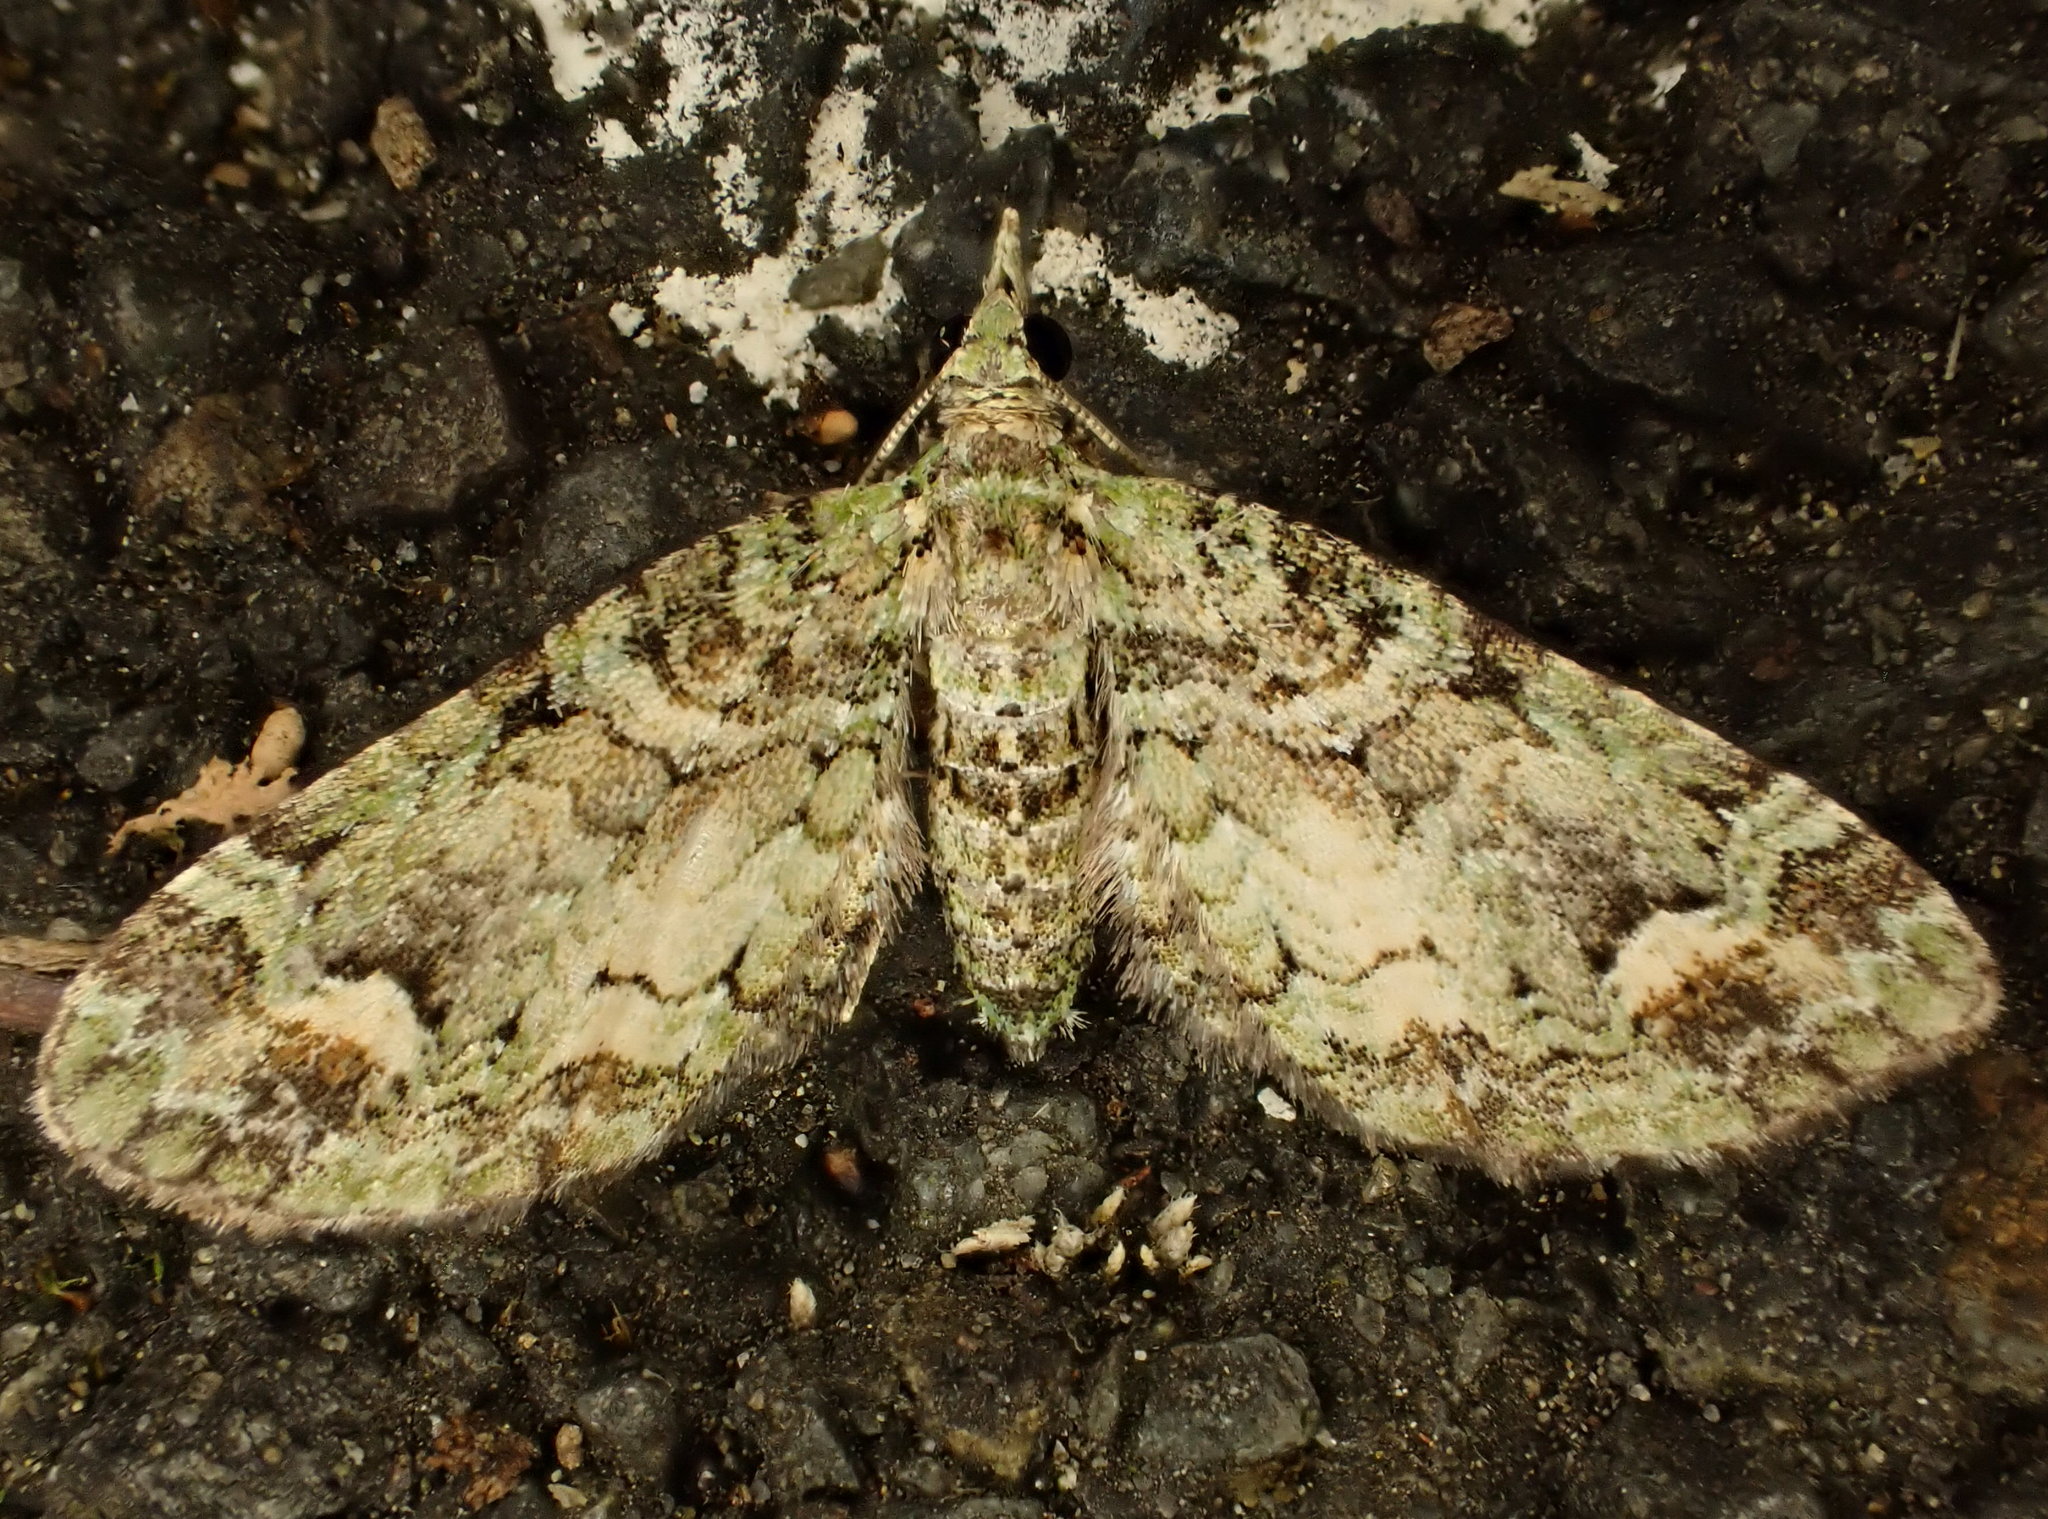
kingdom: Animalia
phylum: Arthropoda
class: Insecta
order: Lepidoptera
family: Geometridae
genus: Idaea
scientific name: Idaea mutanda
